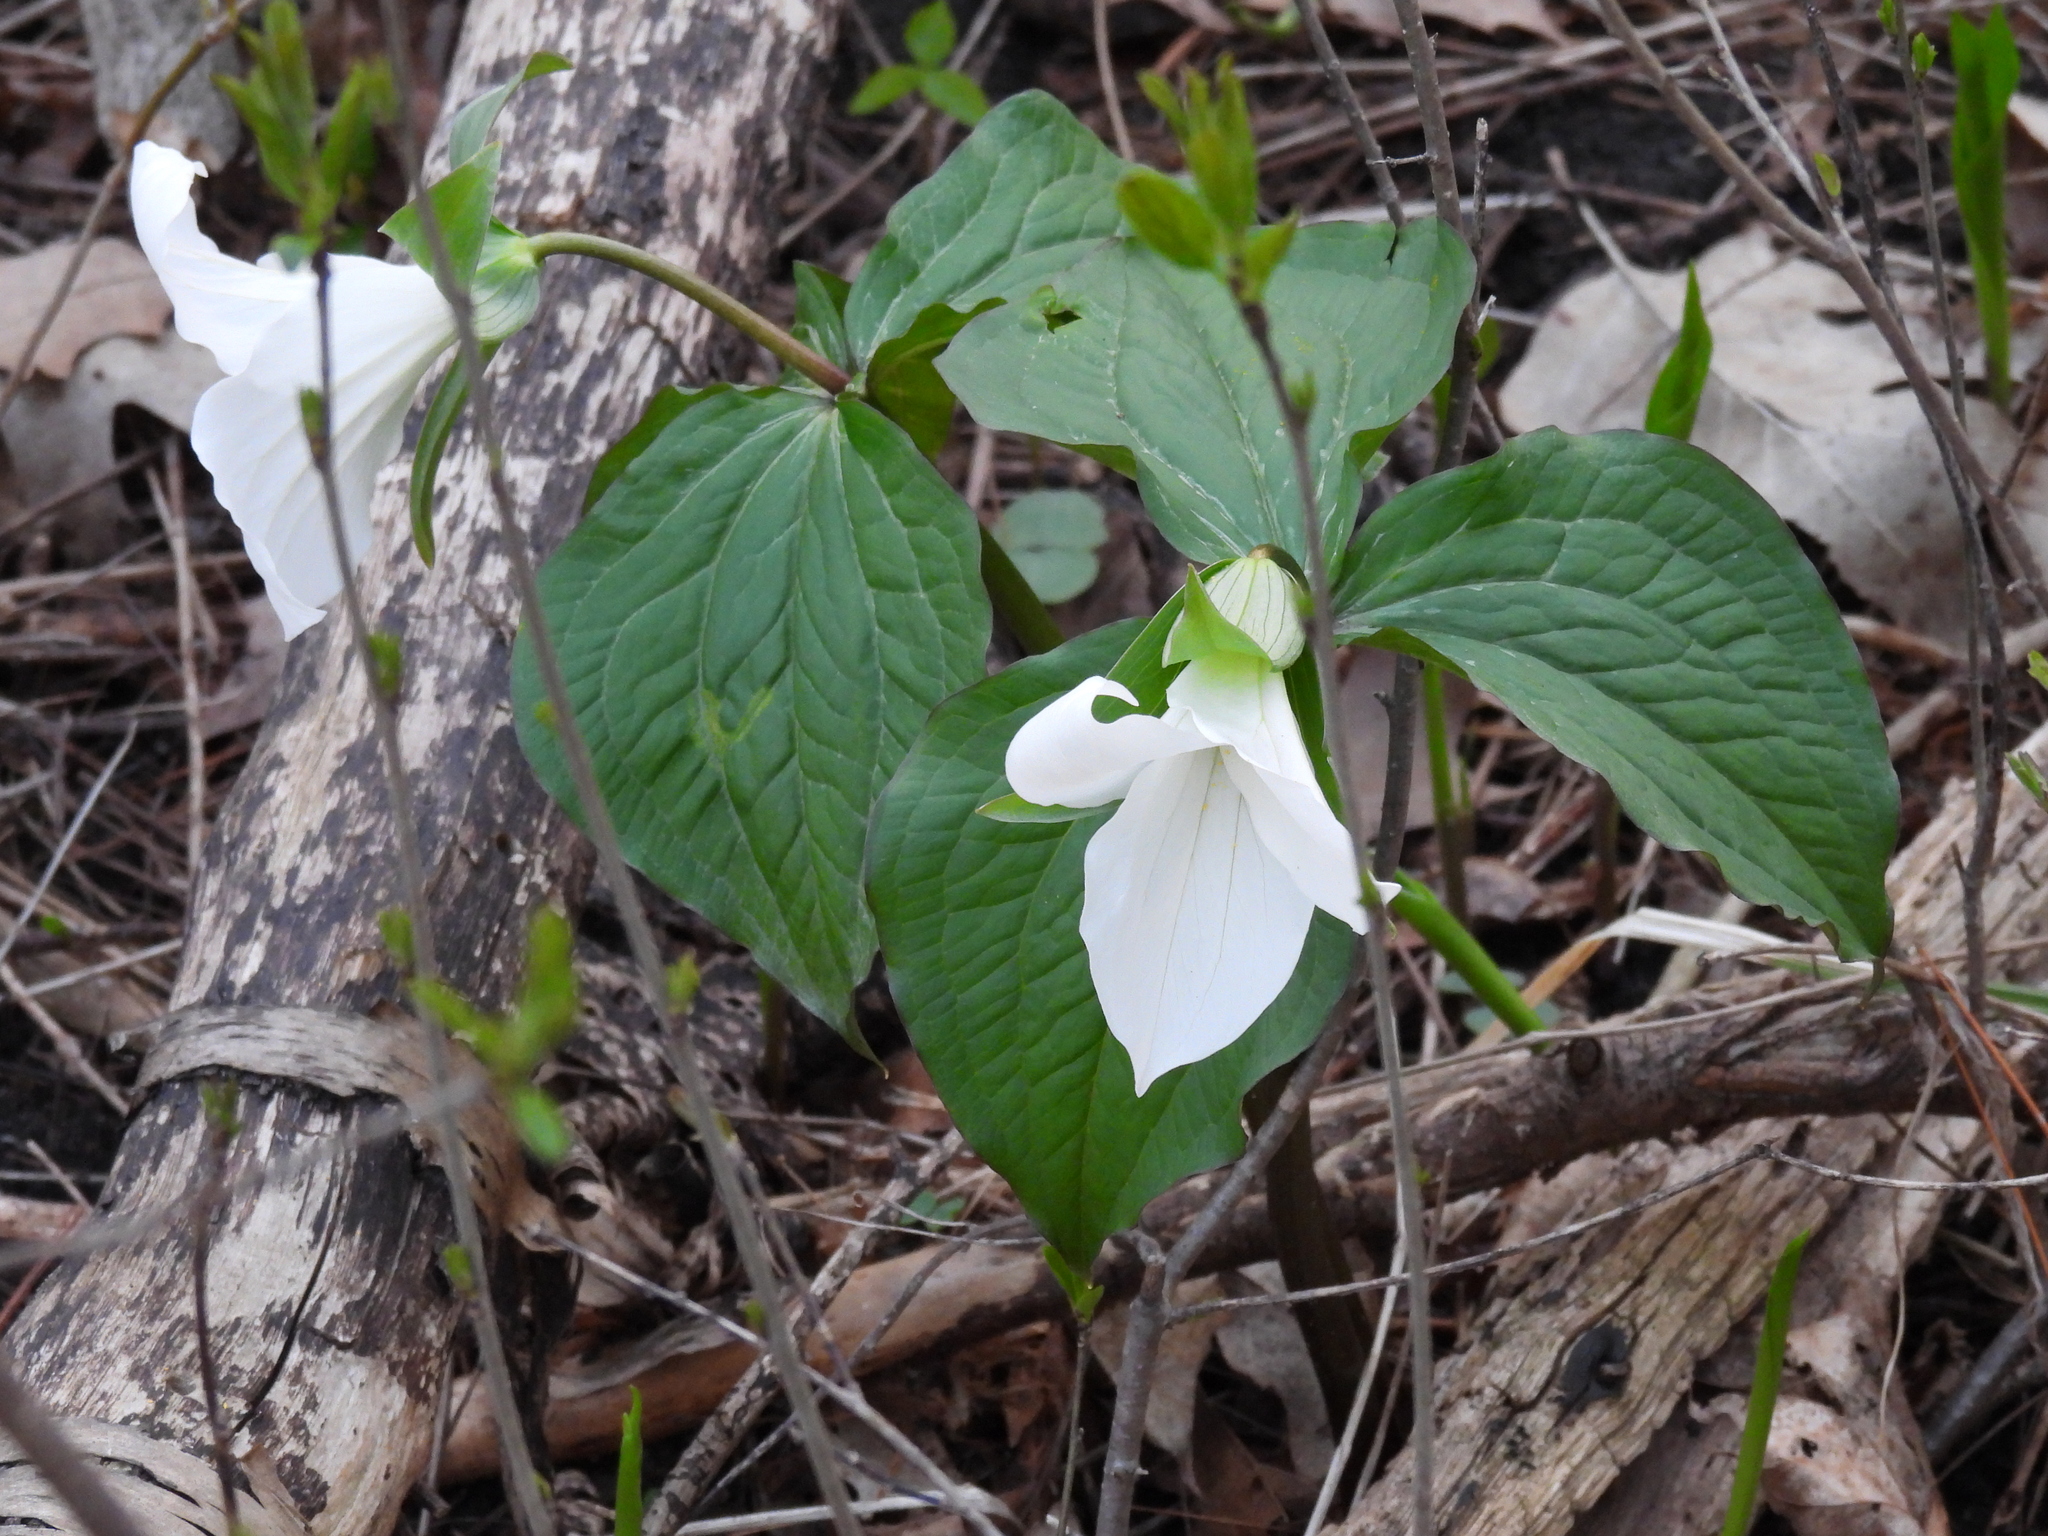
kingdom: Plantae
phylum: Tracheophyta
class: Liliopsida
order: Liliales
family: Melanthiaceae
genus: Trillium
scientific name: Trillium grandiflorum
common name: Great white trillium
